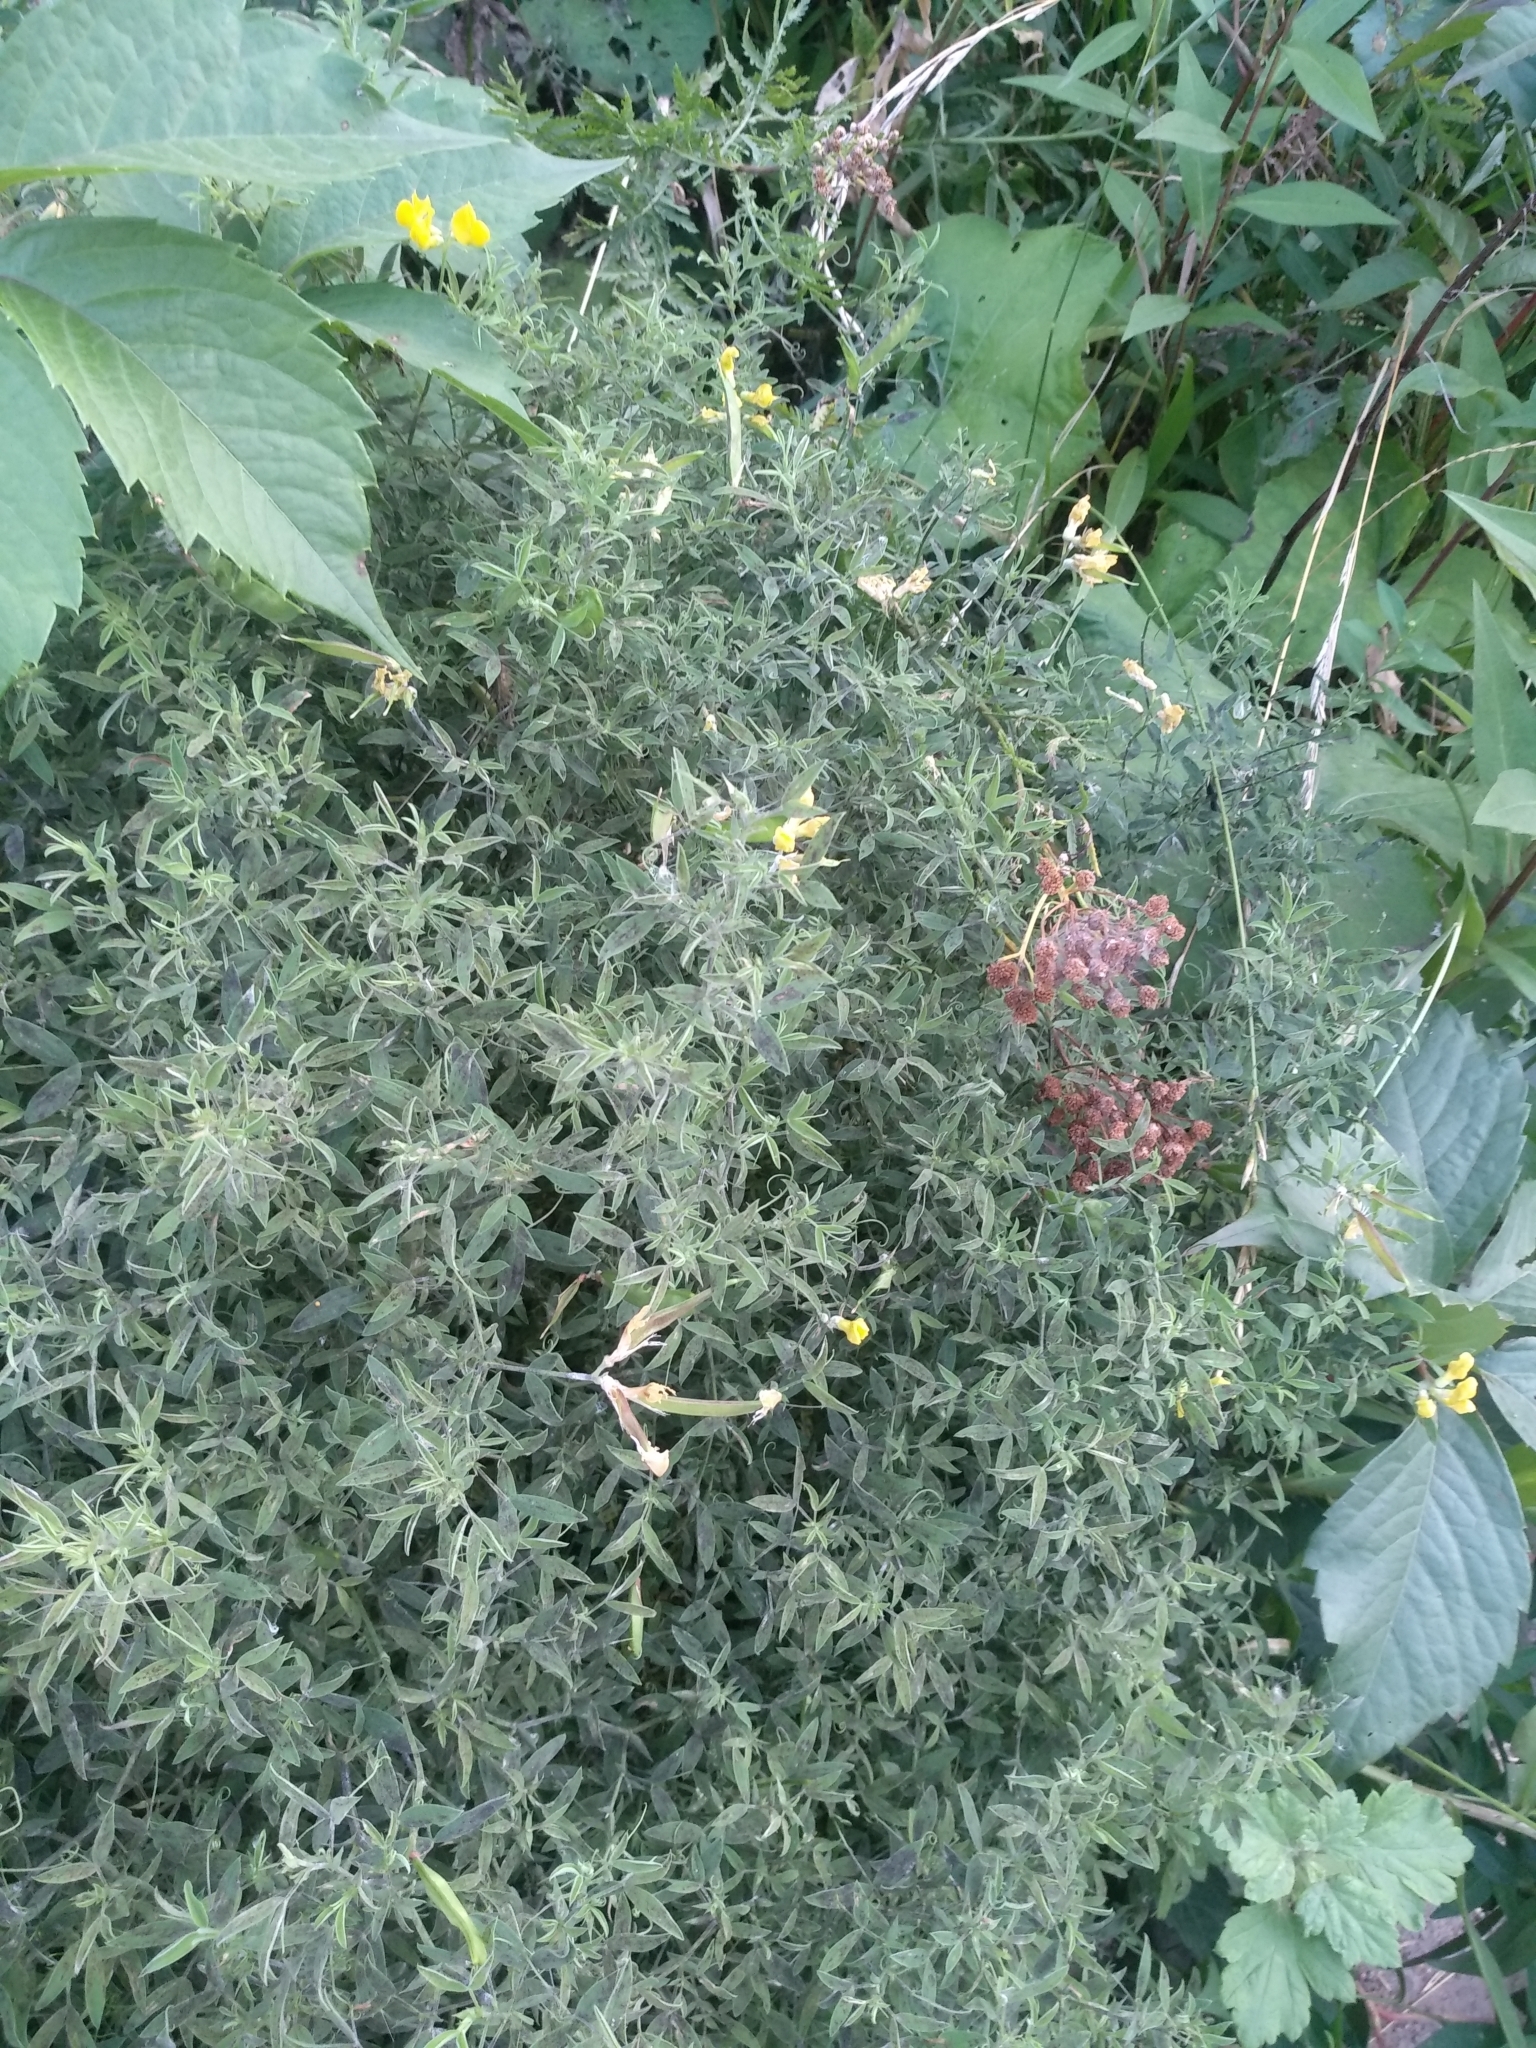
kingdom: Plantae
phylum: Tracheophyta
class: Magnoliopsida
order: Fabales
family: Fabaceae
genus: Lathyrus
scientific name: Lathyrus pratensis
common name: Meadow vetchling
